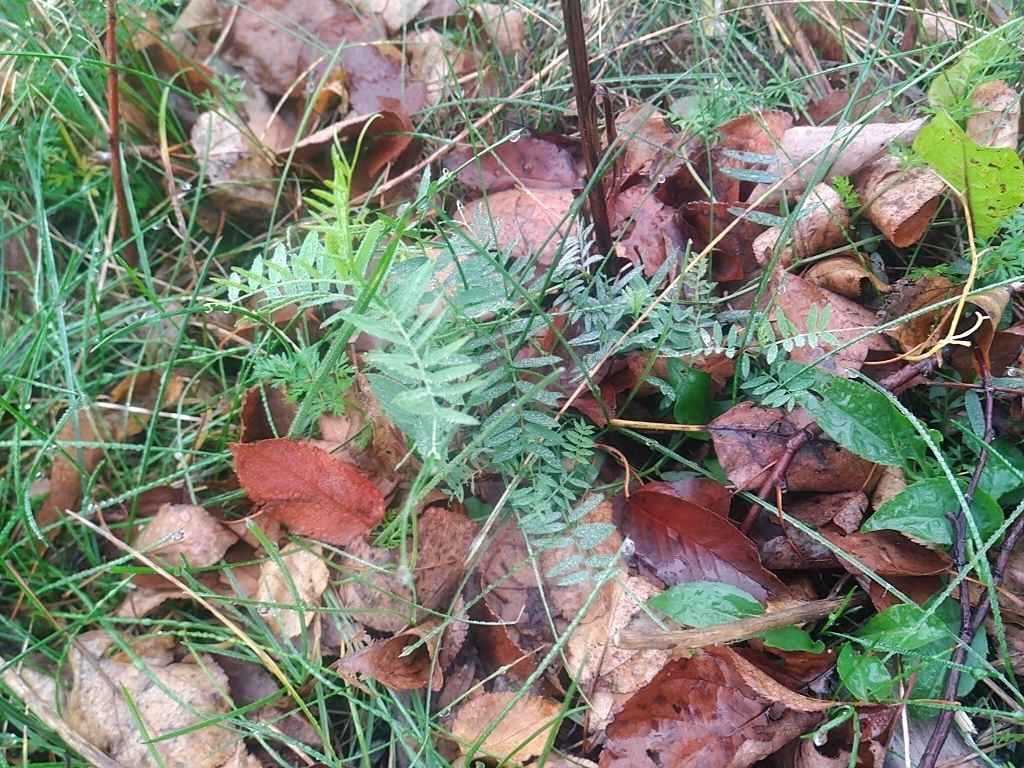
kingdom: Plantae
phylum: Tracheophyta
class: Magnoliopsida
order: Fabales
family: Fabaceae
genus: Vicia
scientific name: Vicia cracca
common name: Bird vetch
